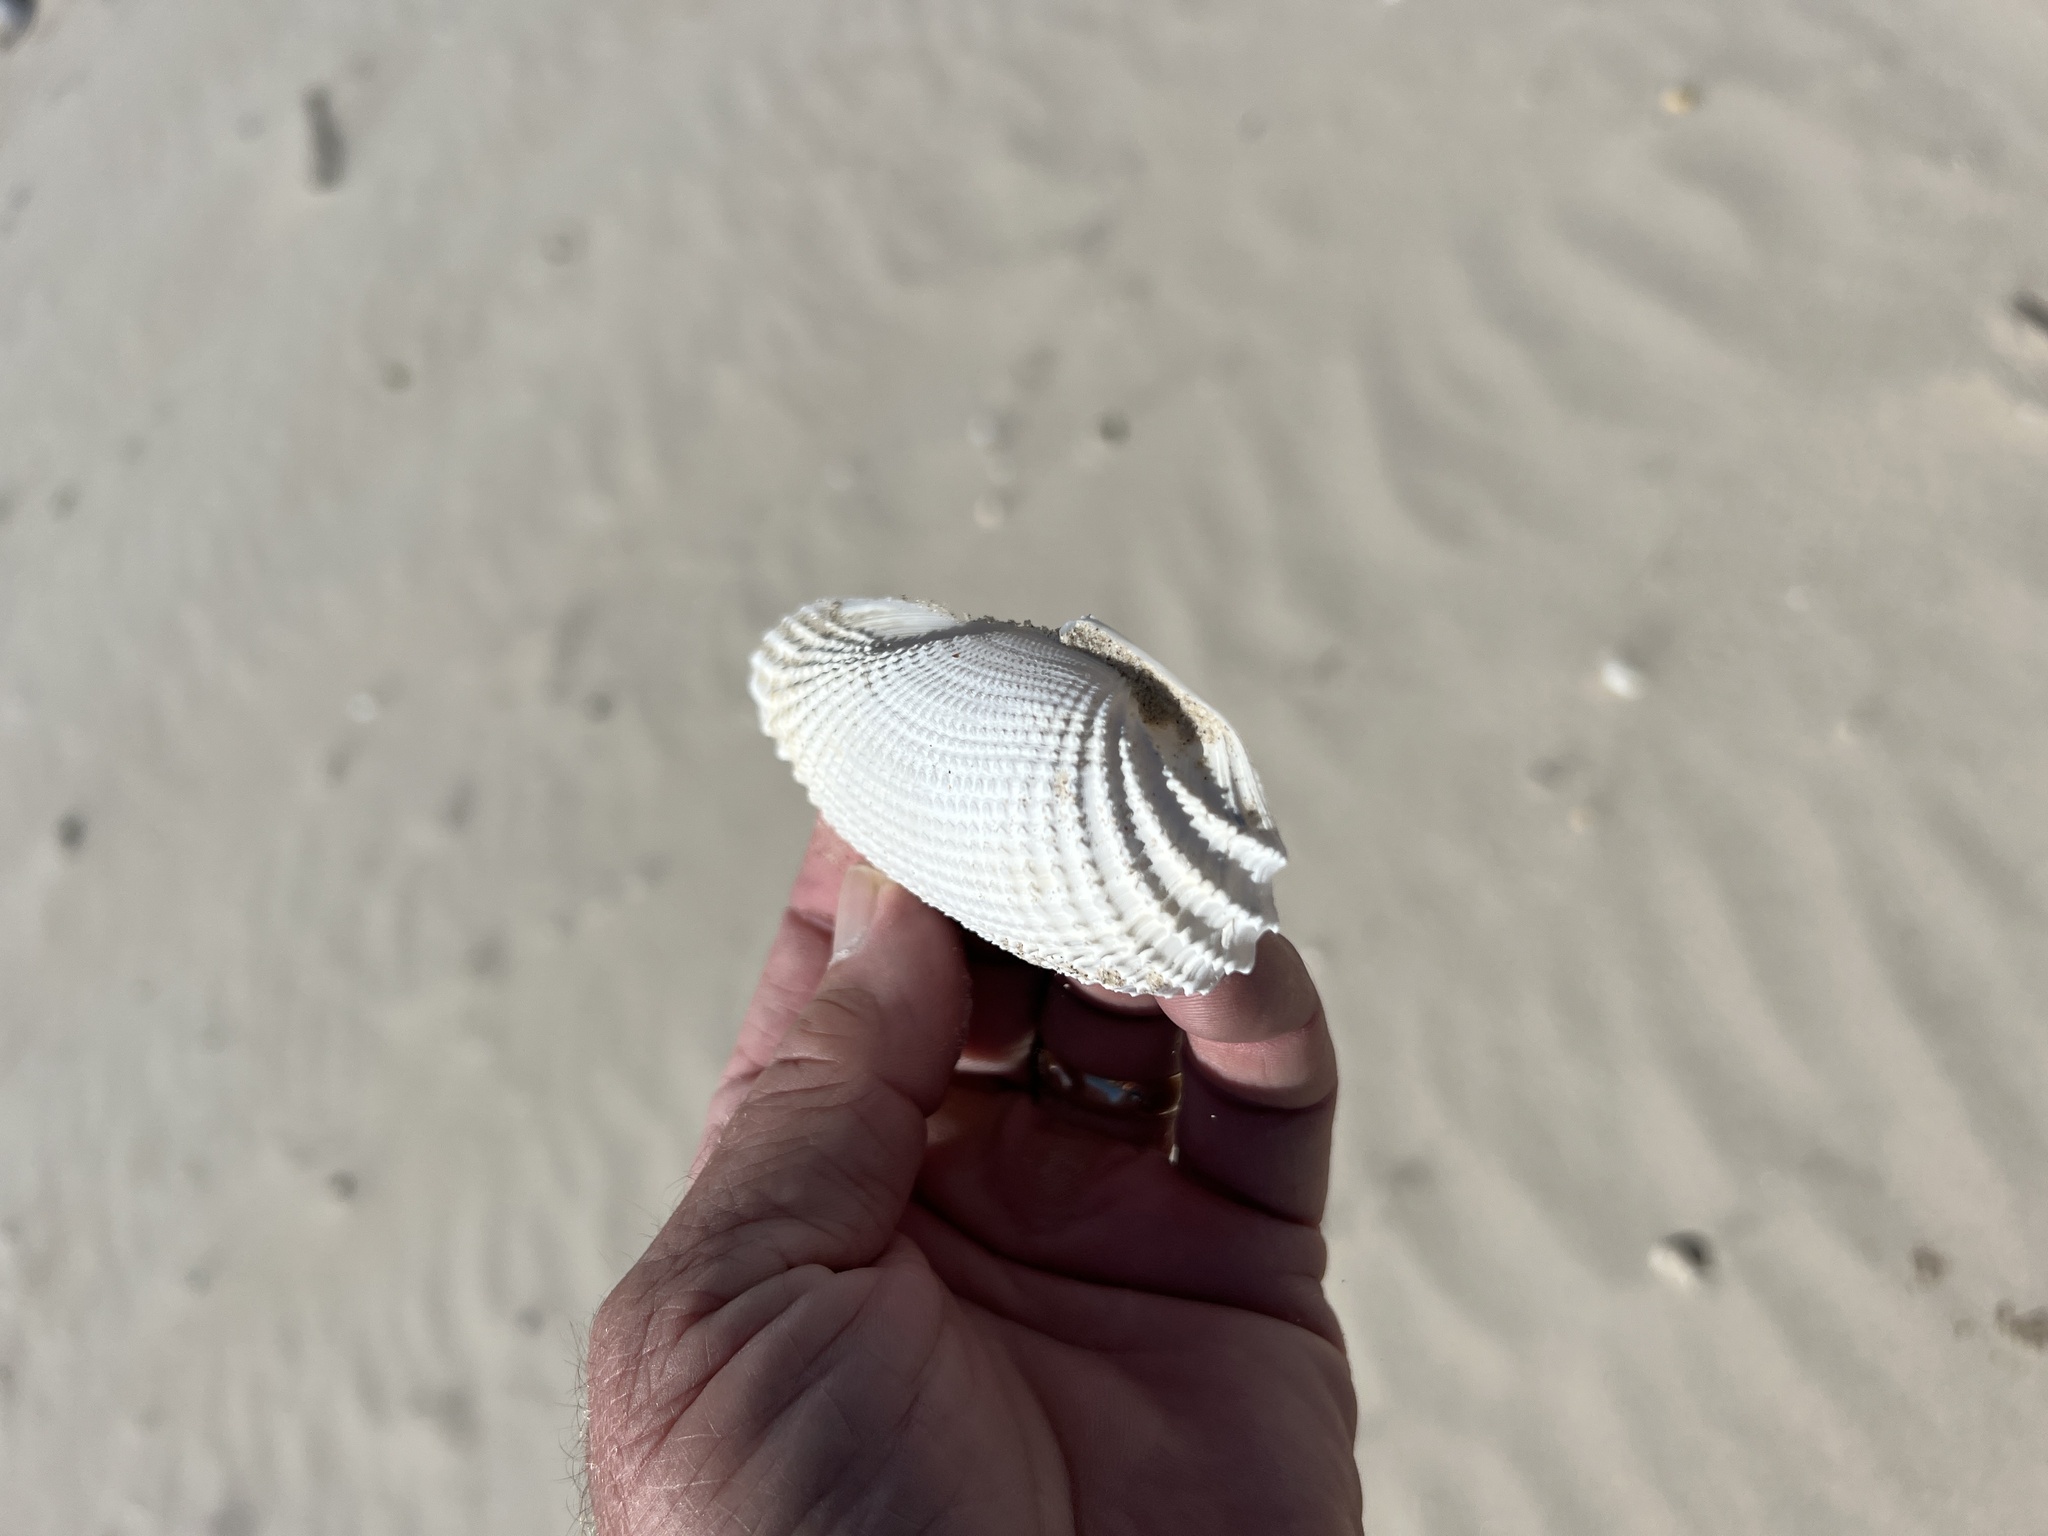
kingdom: Animalia
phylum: Mollusca
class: Bivalvia
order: Myida
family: Pholadidae
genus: Cyrtopleura
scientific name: Cyrtopleura costata
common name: Angel wing
